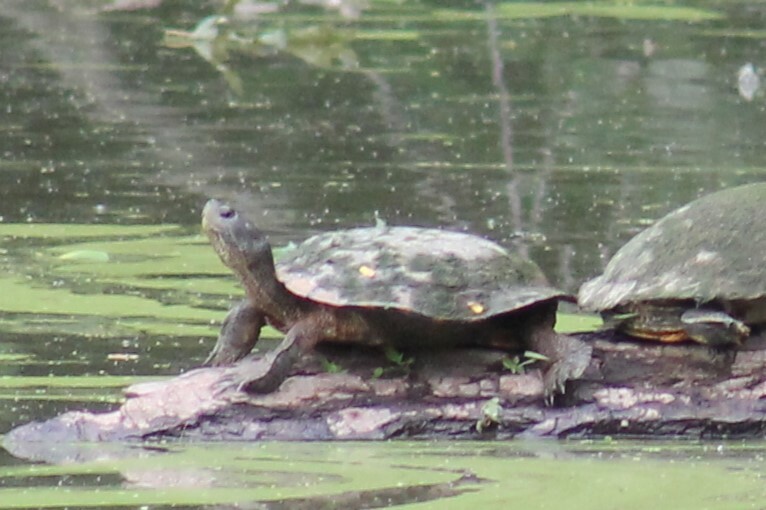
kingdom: Animalia
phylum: Chordata
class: Testudines
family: Emydidae
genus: Trachemys
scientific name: Trachemys scripta
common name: Slider
